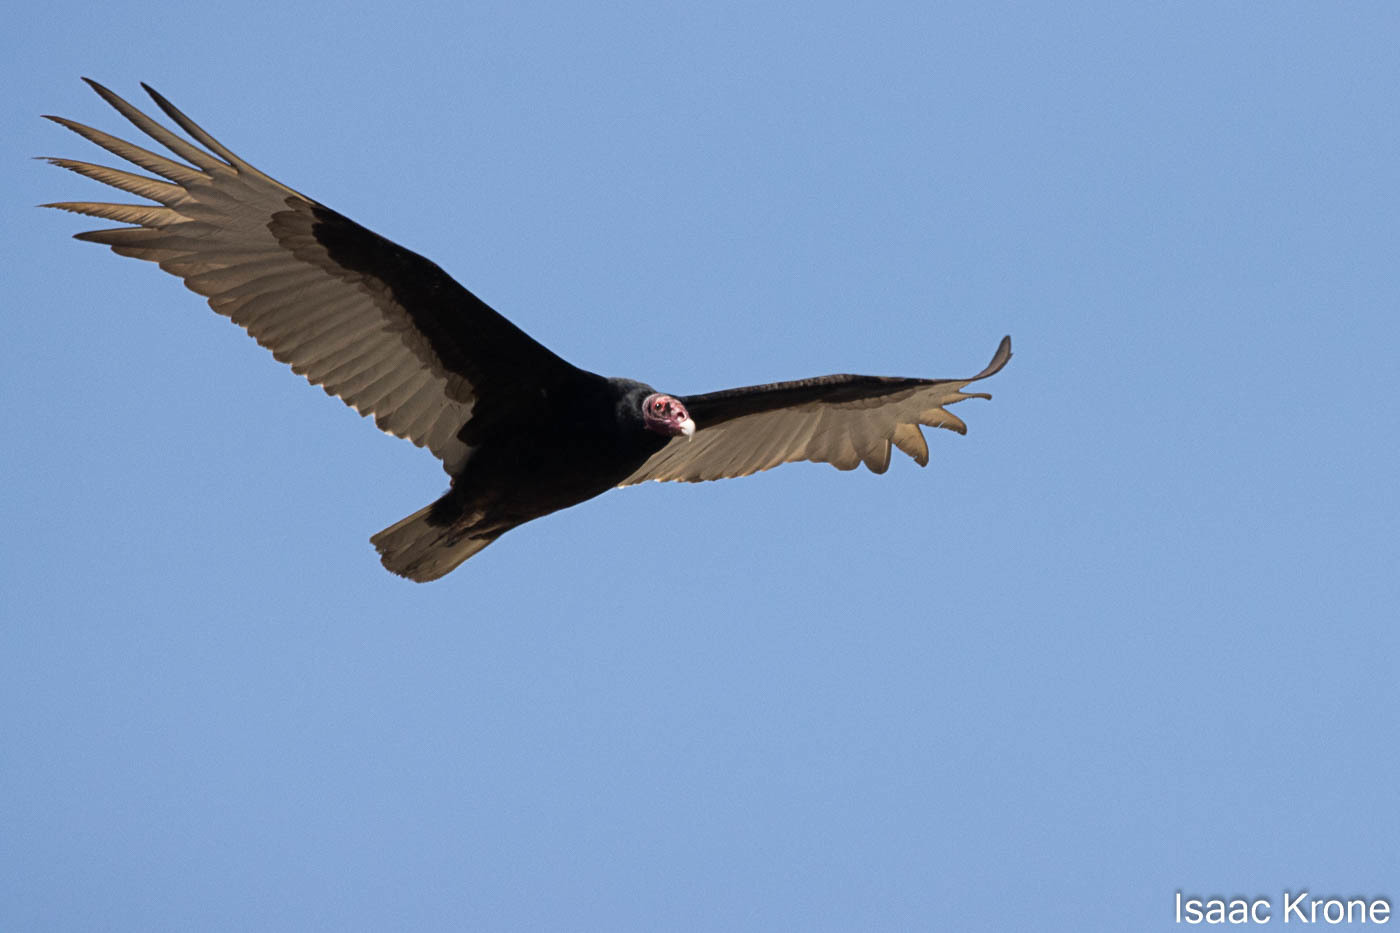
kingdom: Animalia
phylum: Chordata
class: Aves
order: Accipitriformes
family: Cathartidae
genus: Cathartes
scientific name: Cathartes aura
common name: Turkey vulture
